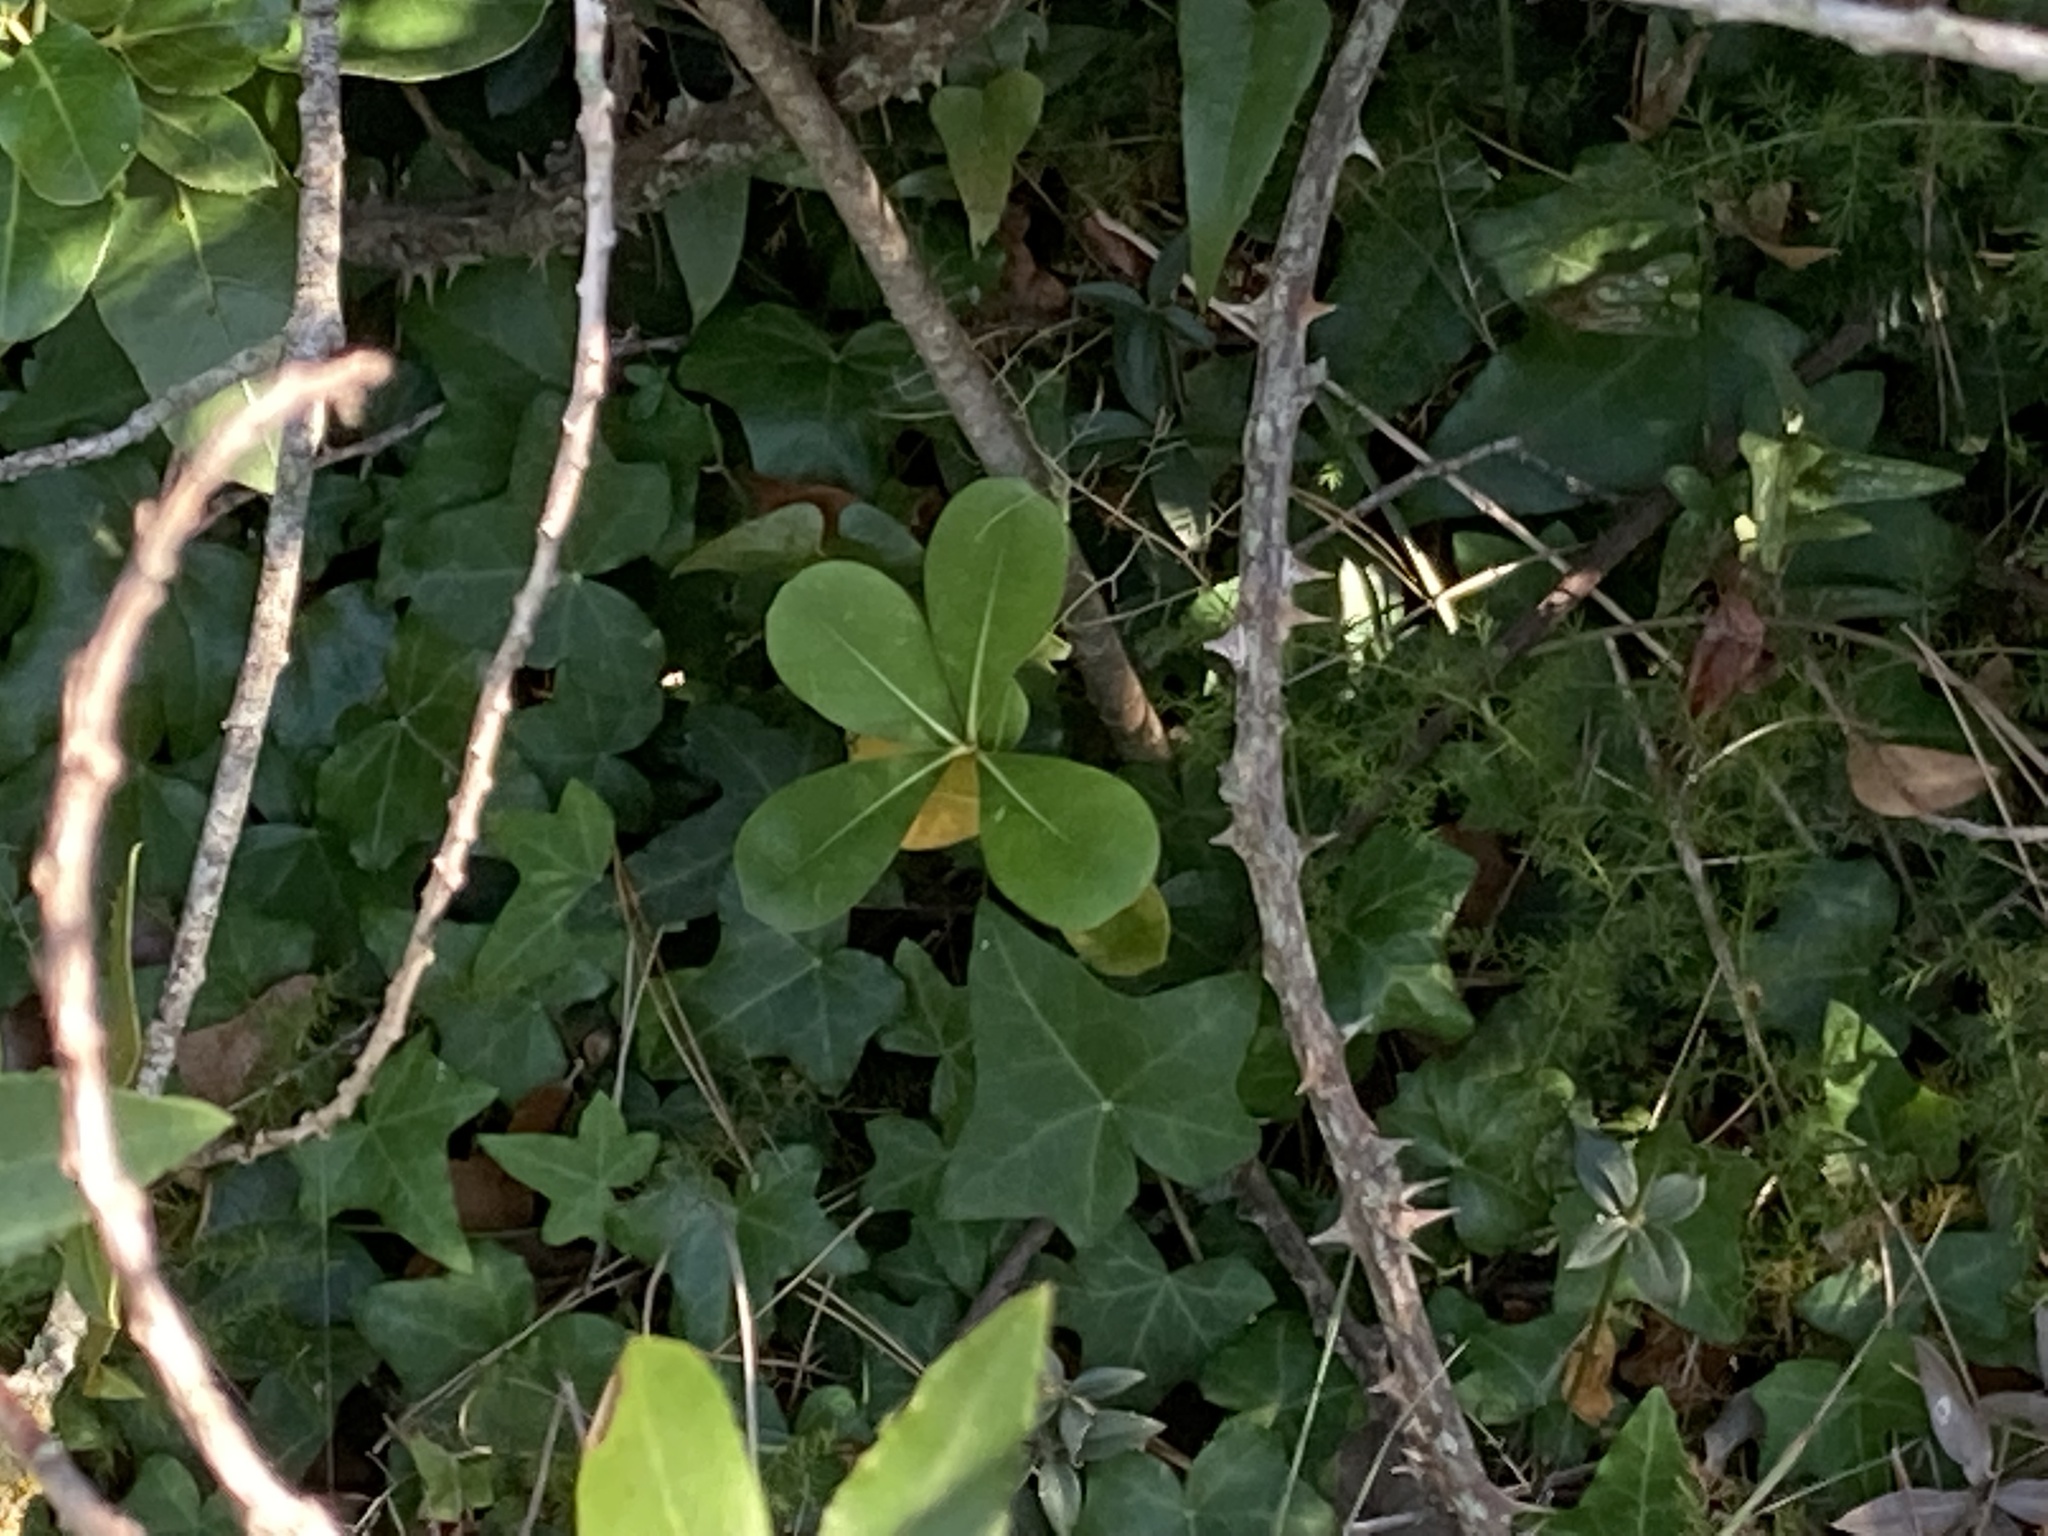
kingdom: Plantae
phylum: Tracheophyta
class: Magnoliopsida
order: Apiales
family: Pittosporaceae
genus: Pittosporum
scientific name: Pittosporum tobira
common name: Japanese cheesewood
